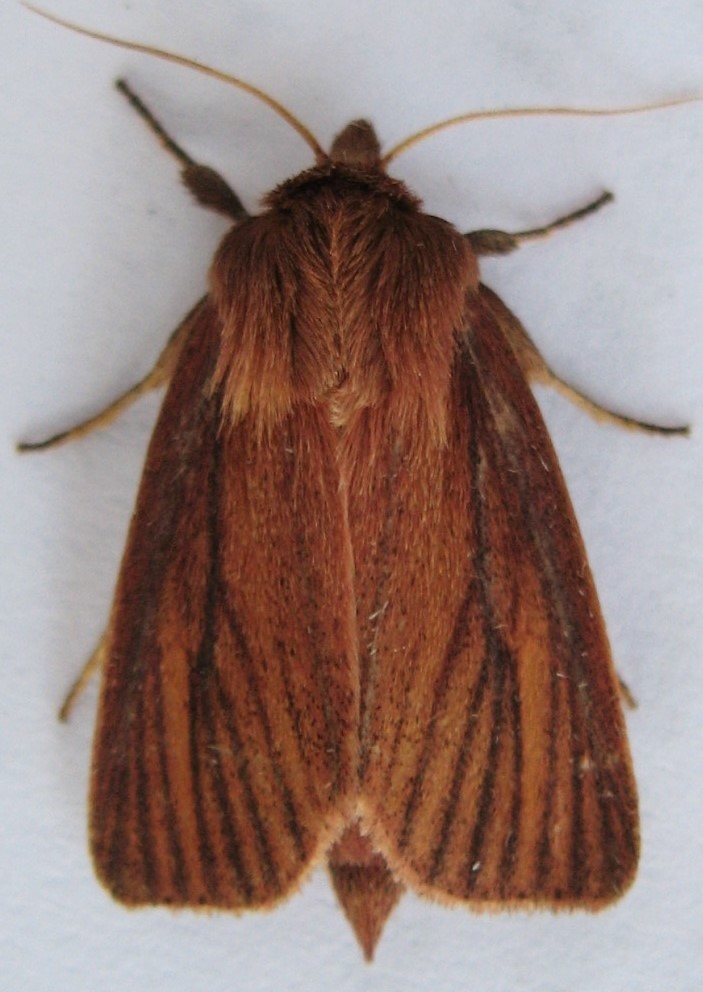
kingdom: Animalia
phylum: Arthropoda
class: Insecta
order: Lepidoptera
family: Noctuidae
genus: Globia
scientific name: Globia laeta
